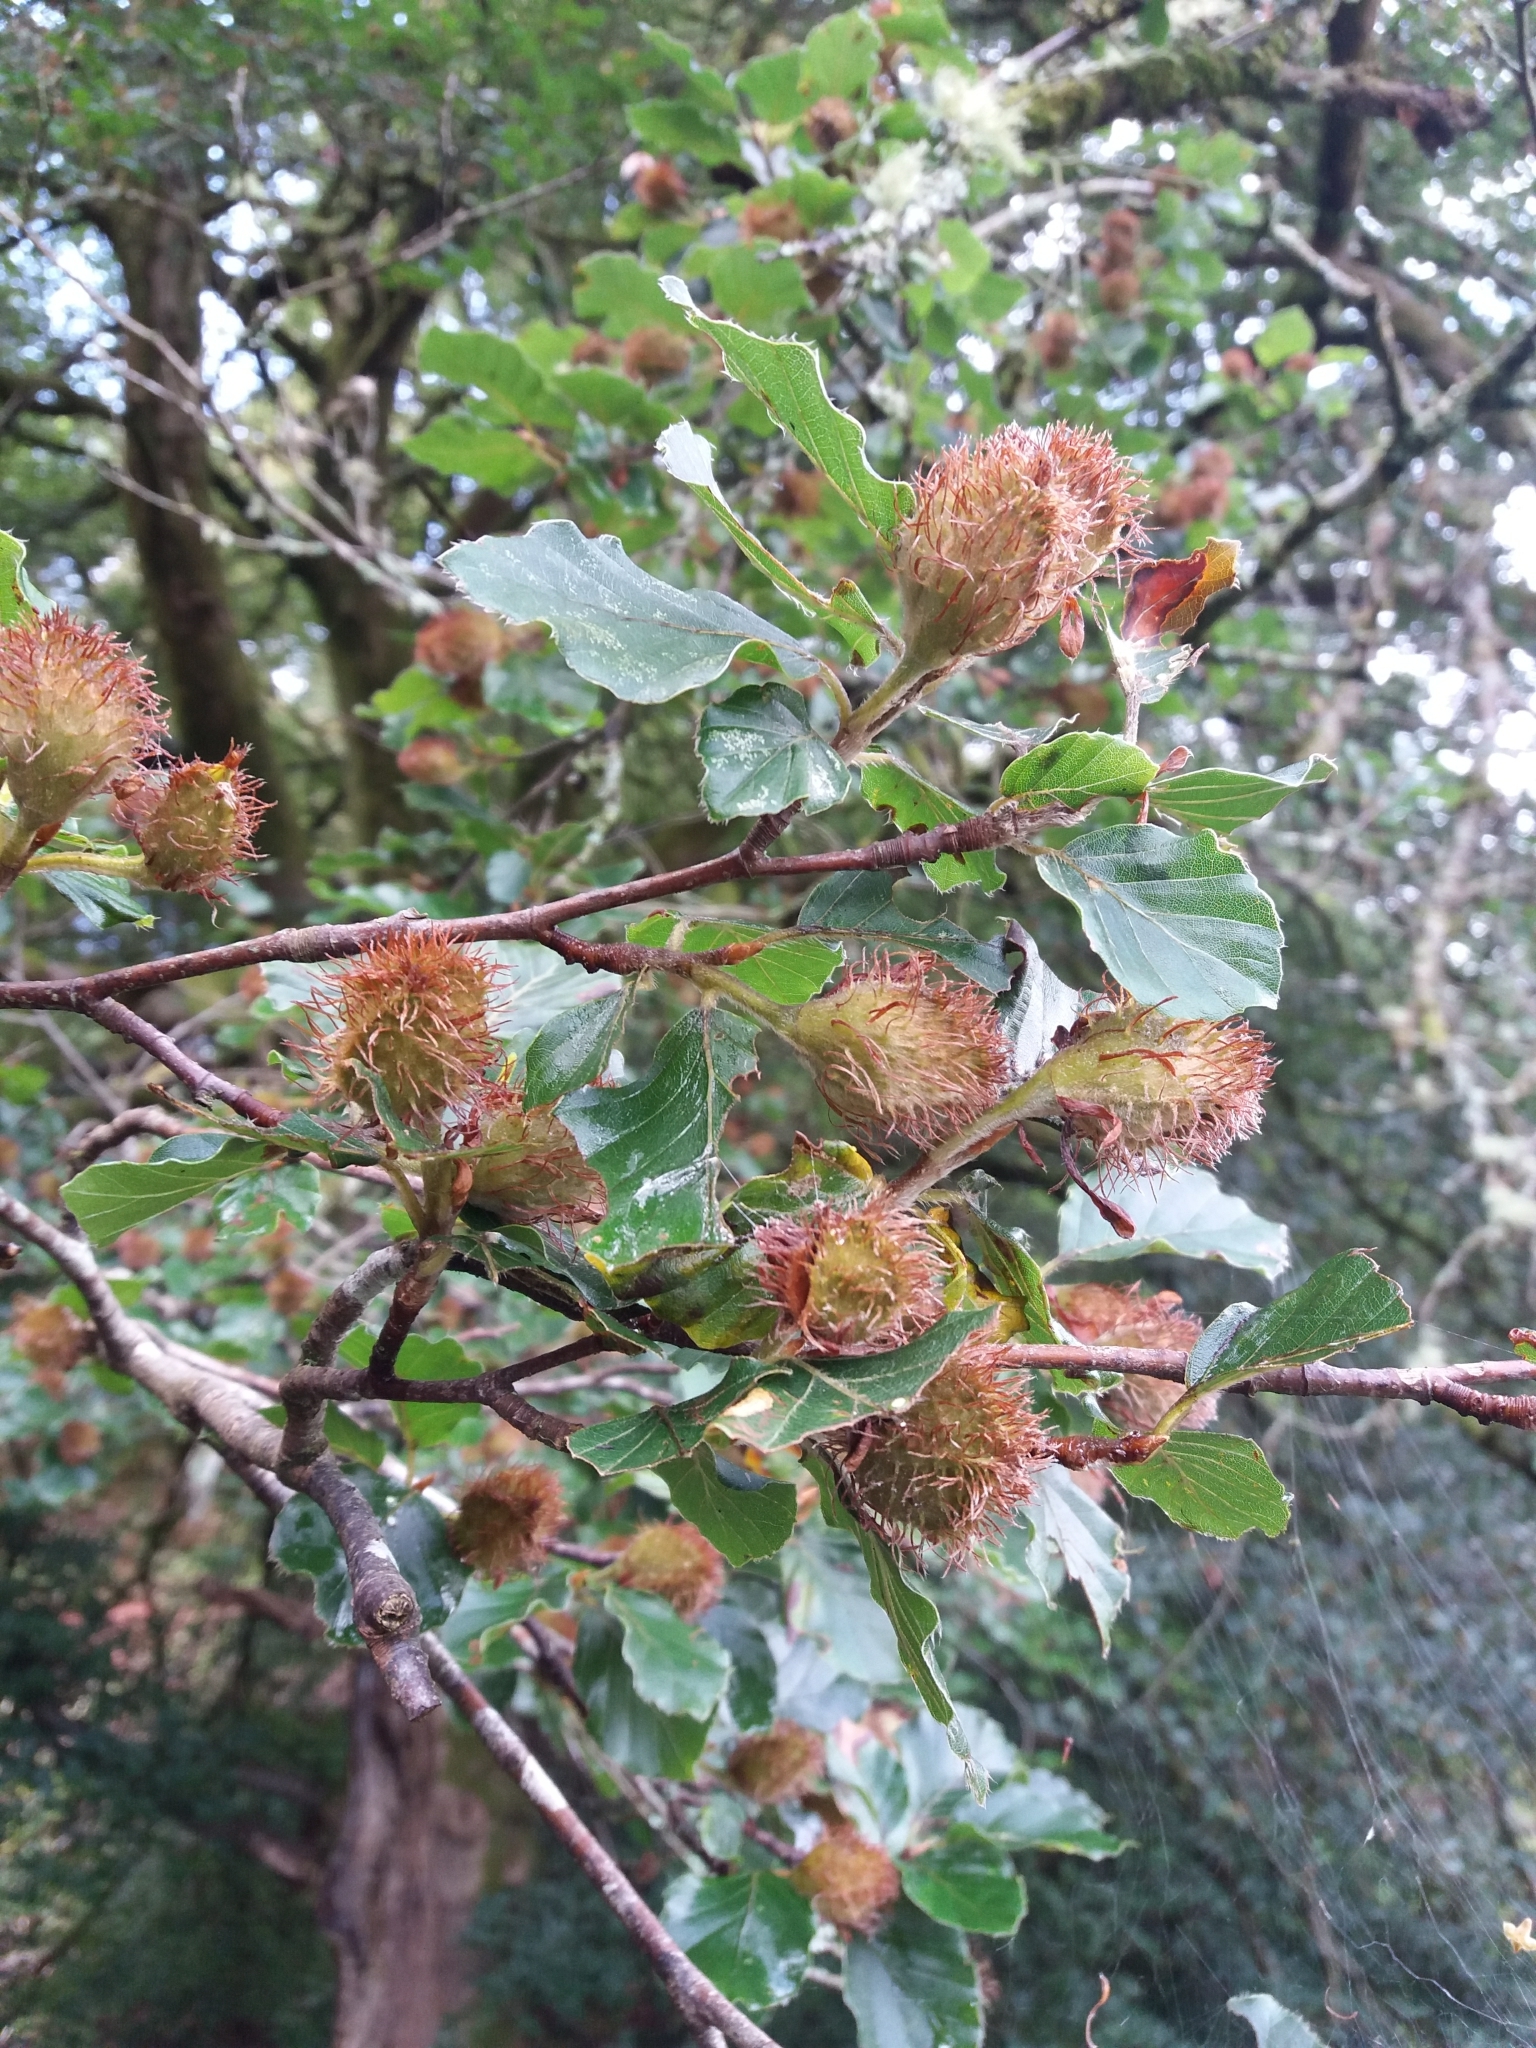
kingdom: Plantae
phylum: Tracheophyta
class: Magnoliopsida
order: Fagales
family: Fagaceae
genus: Fagus
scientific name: Fagus sylvatica
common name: Beech
